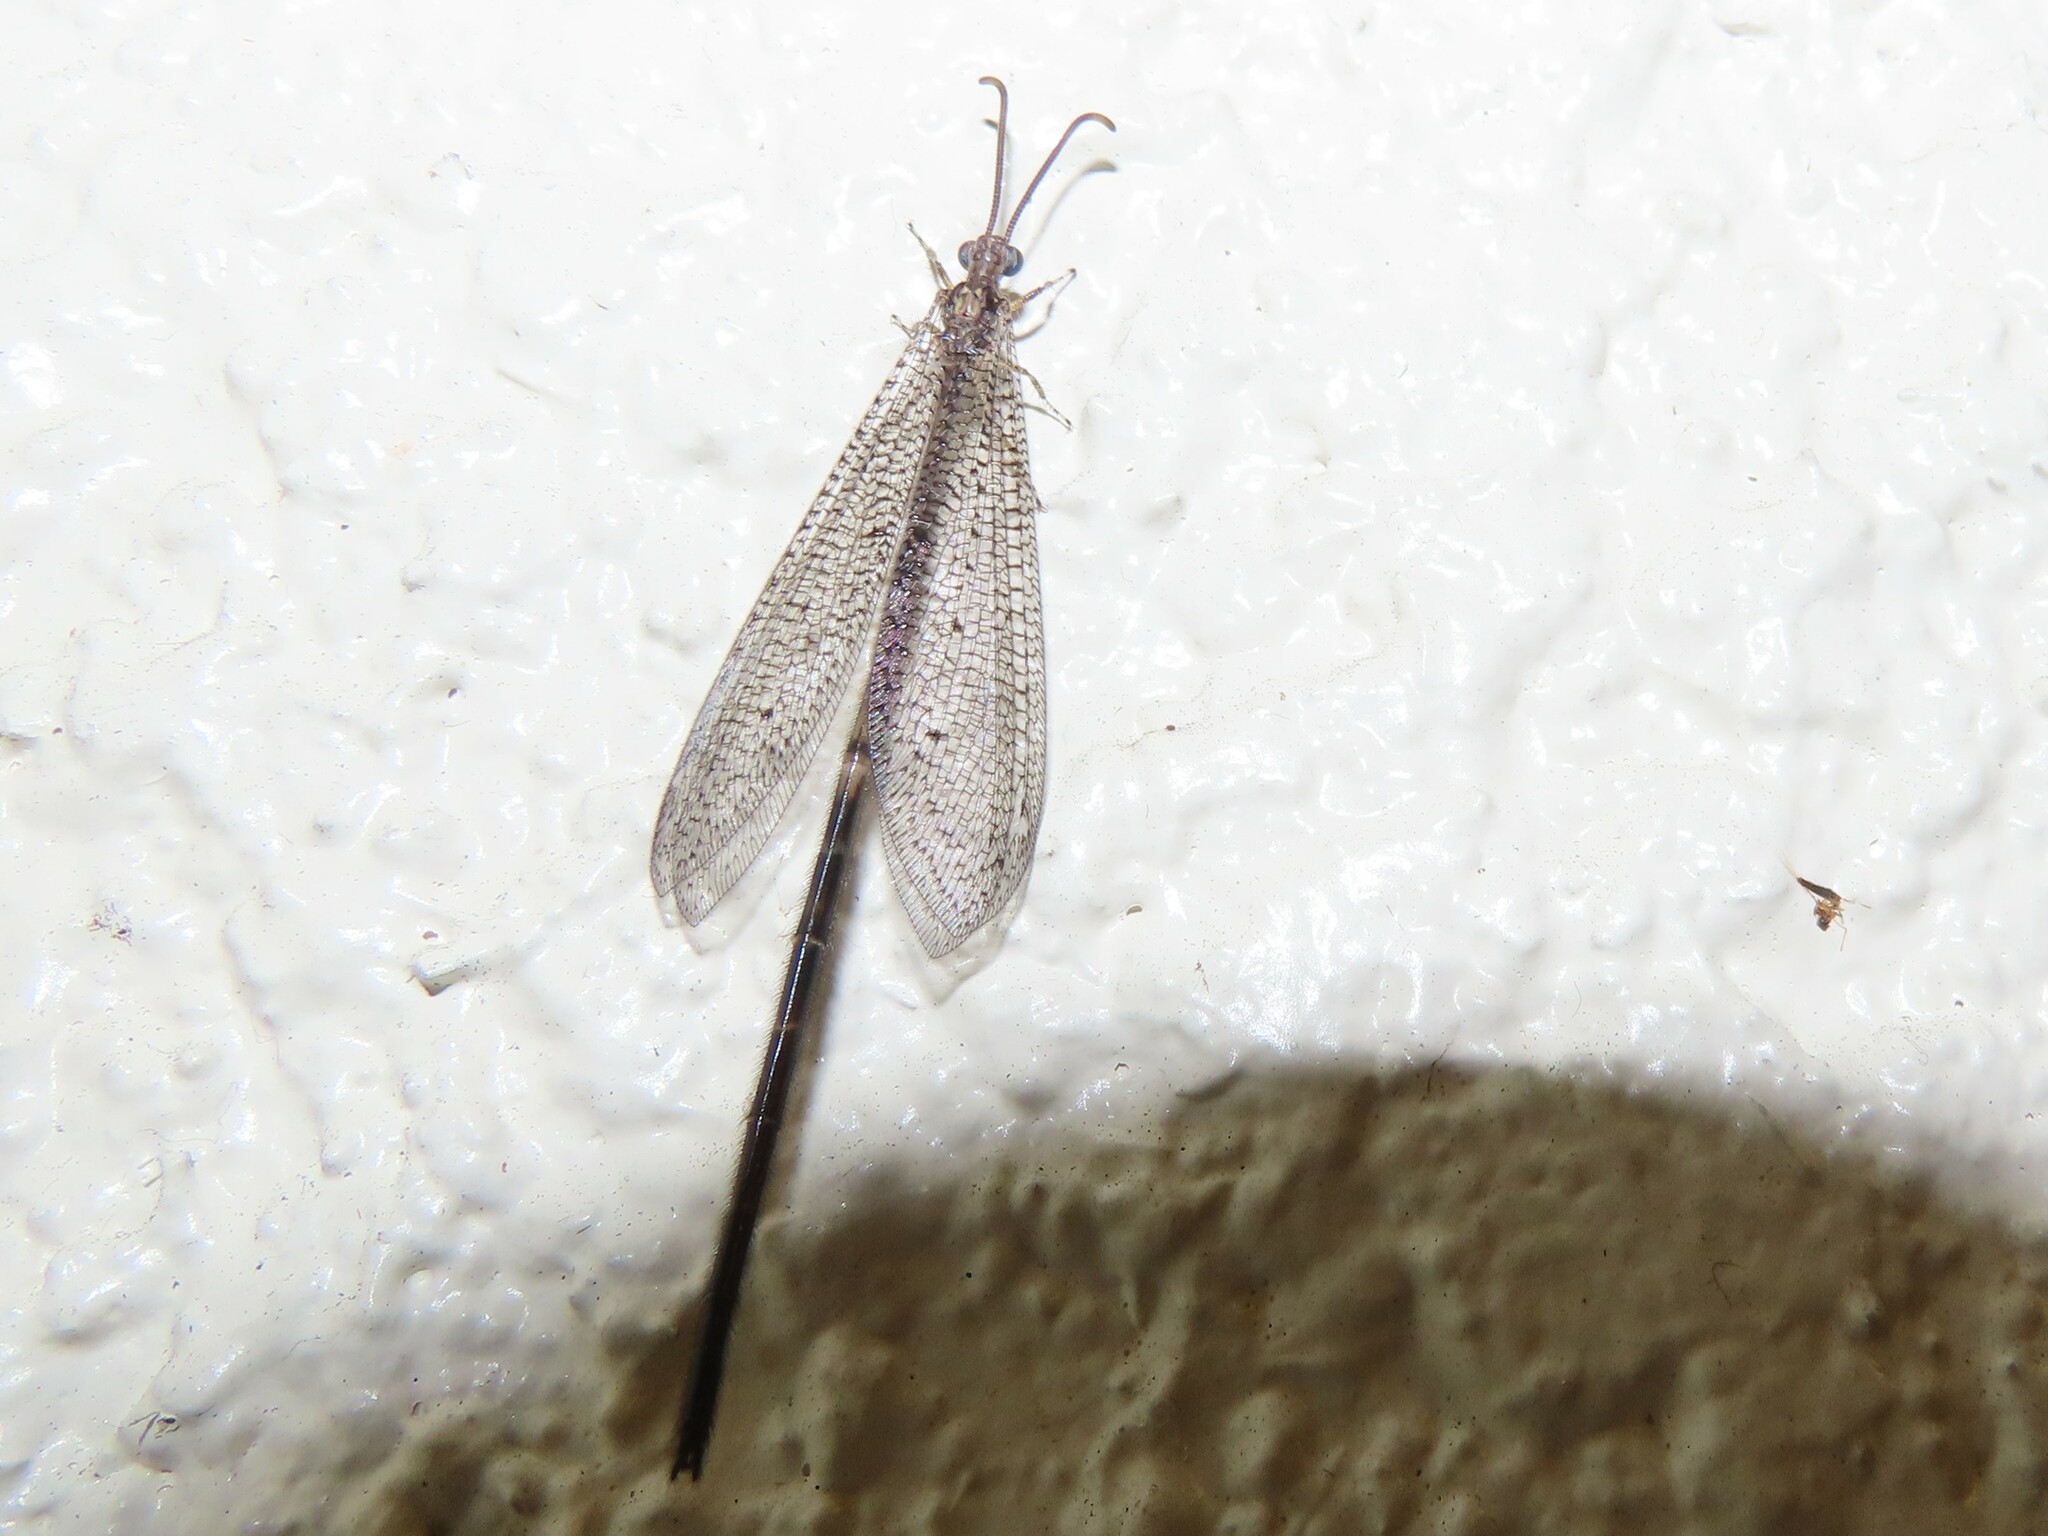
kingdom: Animalia
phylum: Arthropoda
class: Insecta
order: Neuroptera
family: Myrmeleontidae
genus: Brachynemurus
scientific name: Brachynemurus longicaudus
